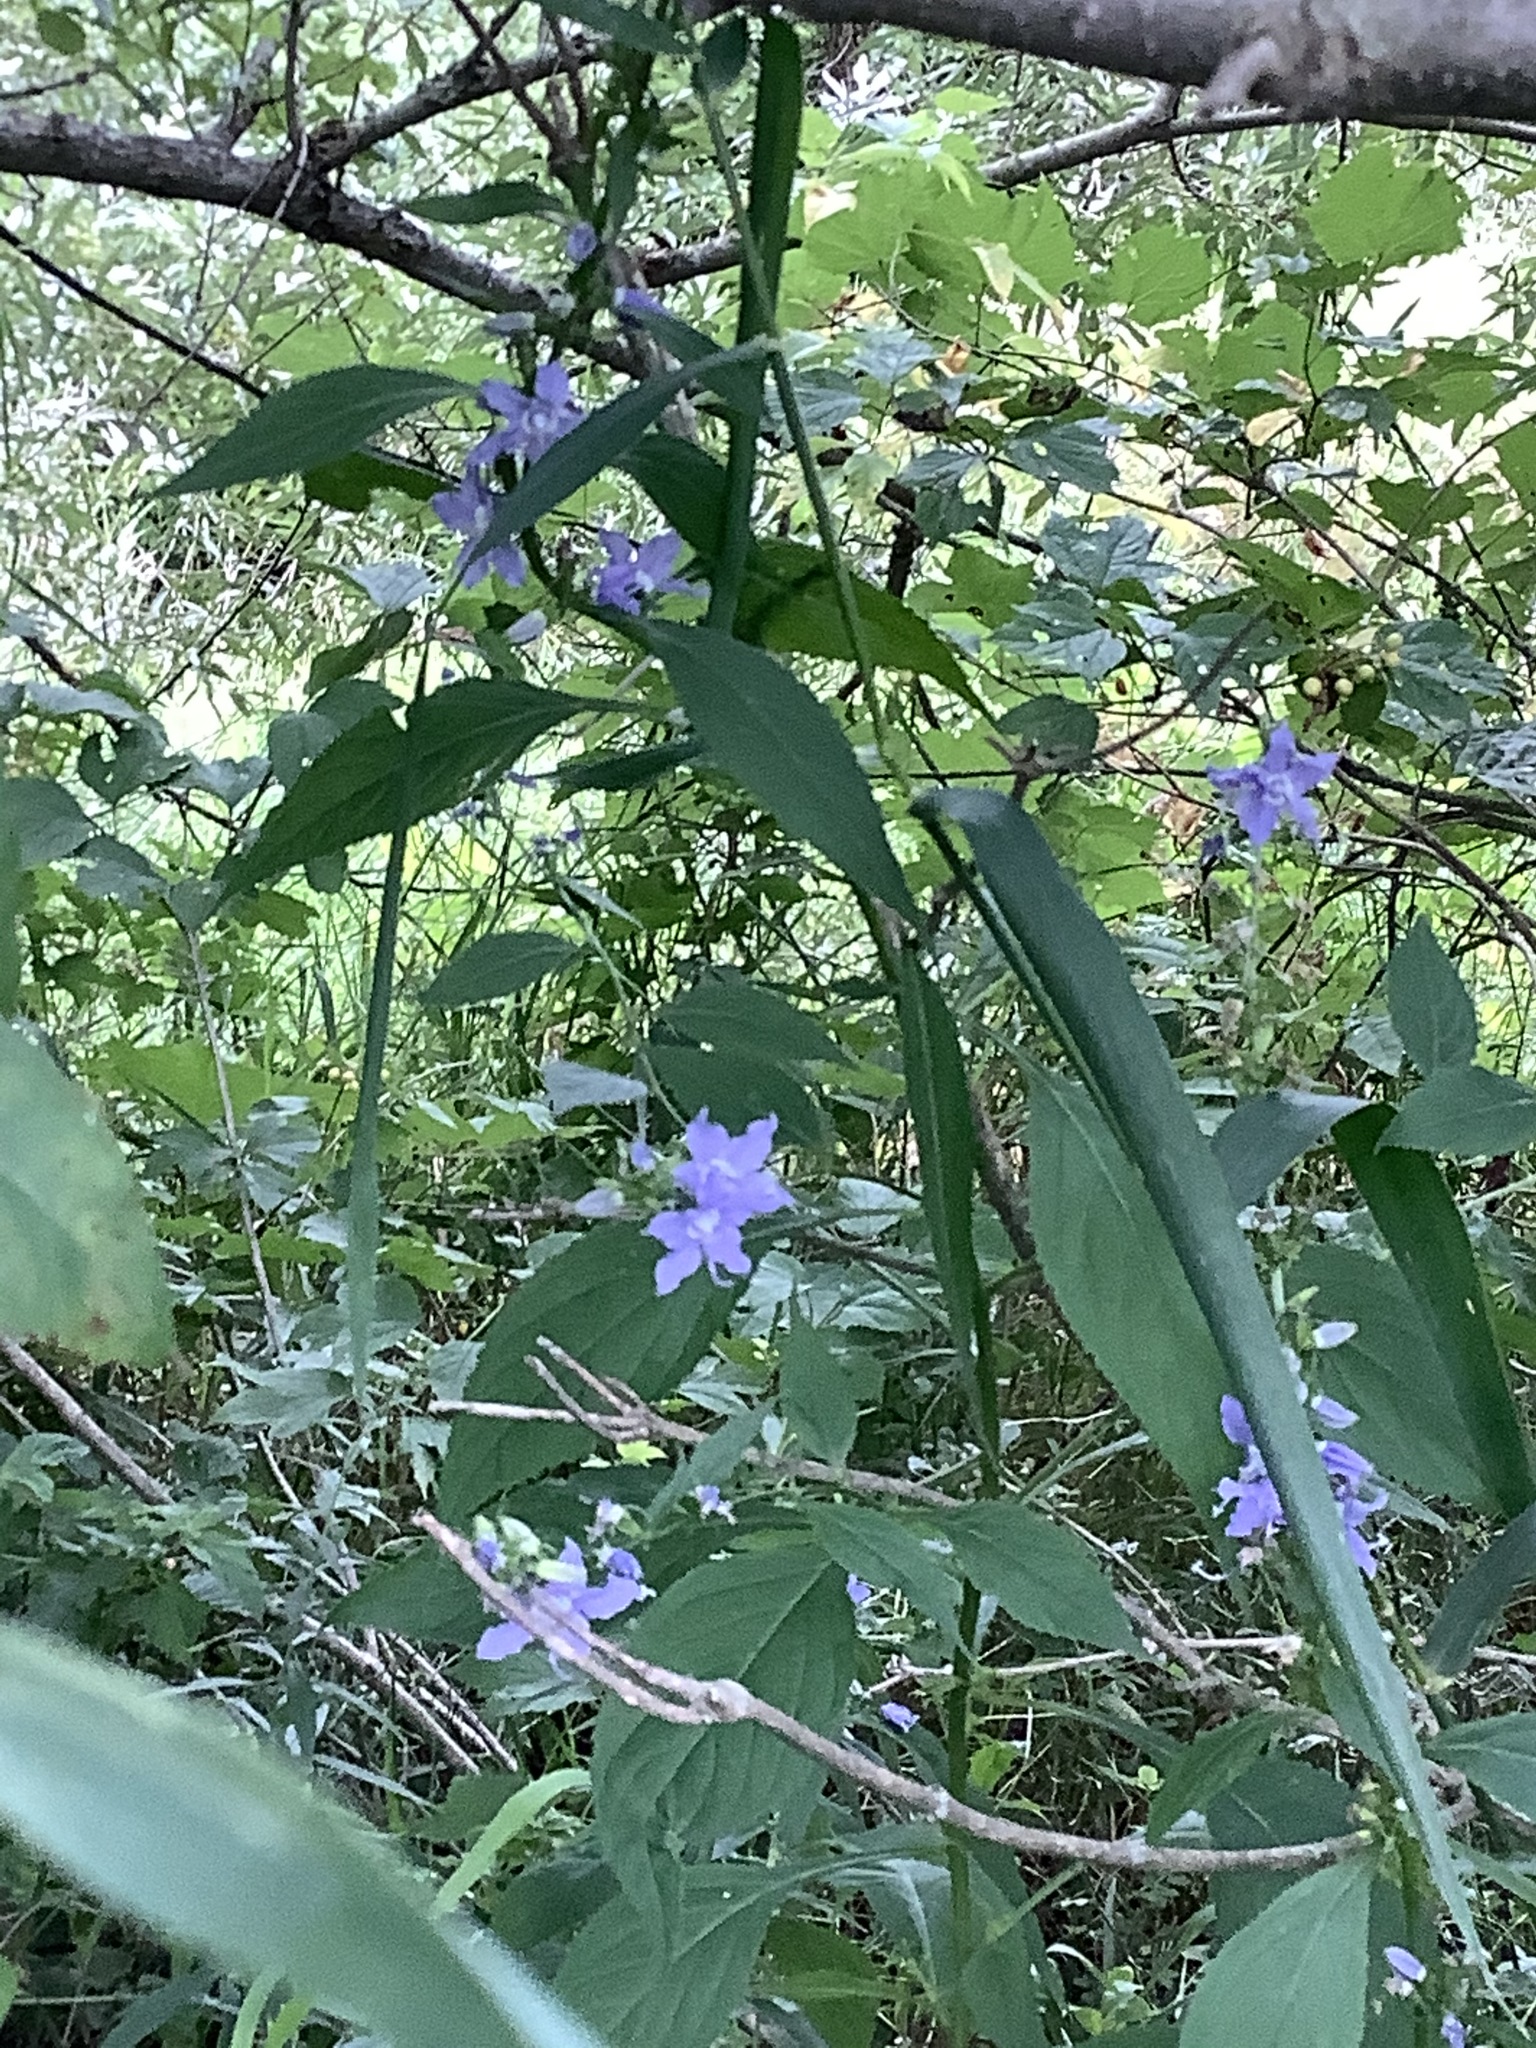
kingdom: Plantae
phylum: Tracheophyta
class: Magnoliopsida
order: Asterales
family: Campanulaceae
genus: Campanulastrum
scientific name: Campanulastrum americanum
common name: American bellflower
